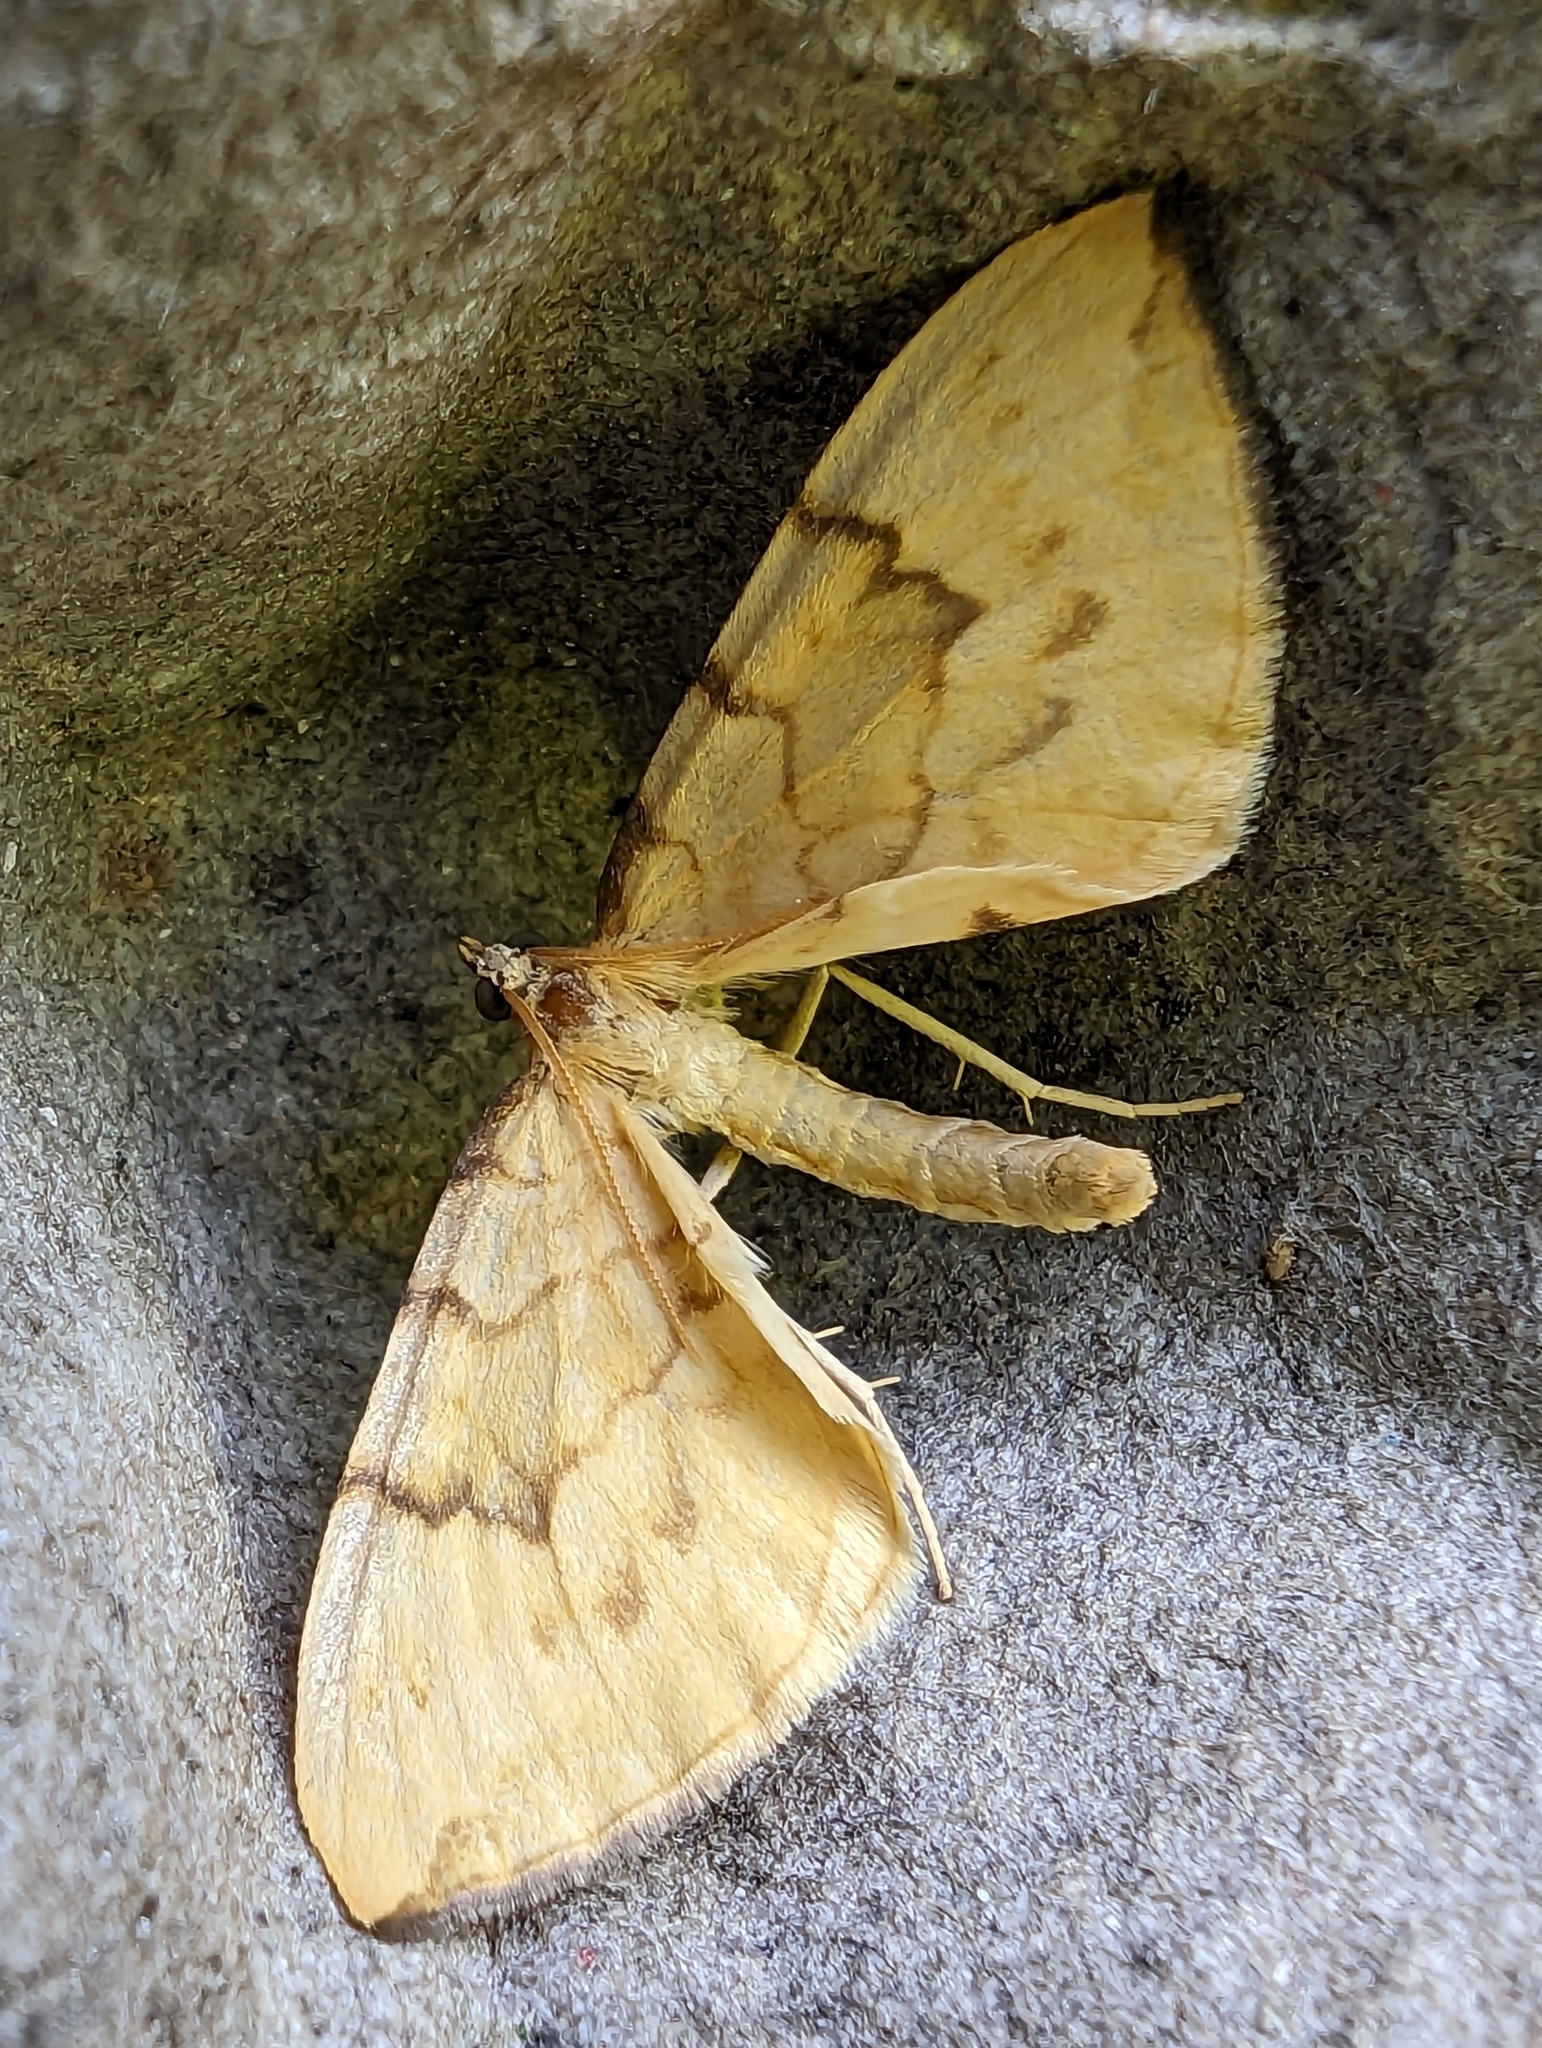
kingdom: Animalia
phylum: Arthropoda
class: Insecta
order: Lepidoptera
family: Geometridae
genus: Eulithis
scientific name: Eulithis pyraliata
